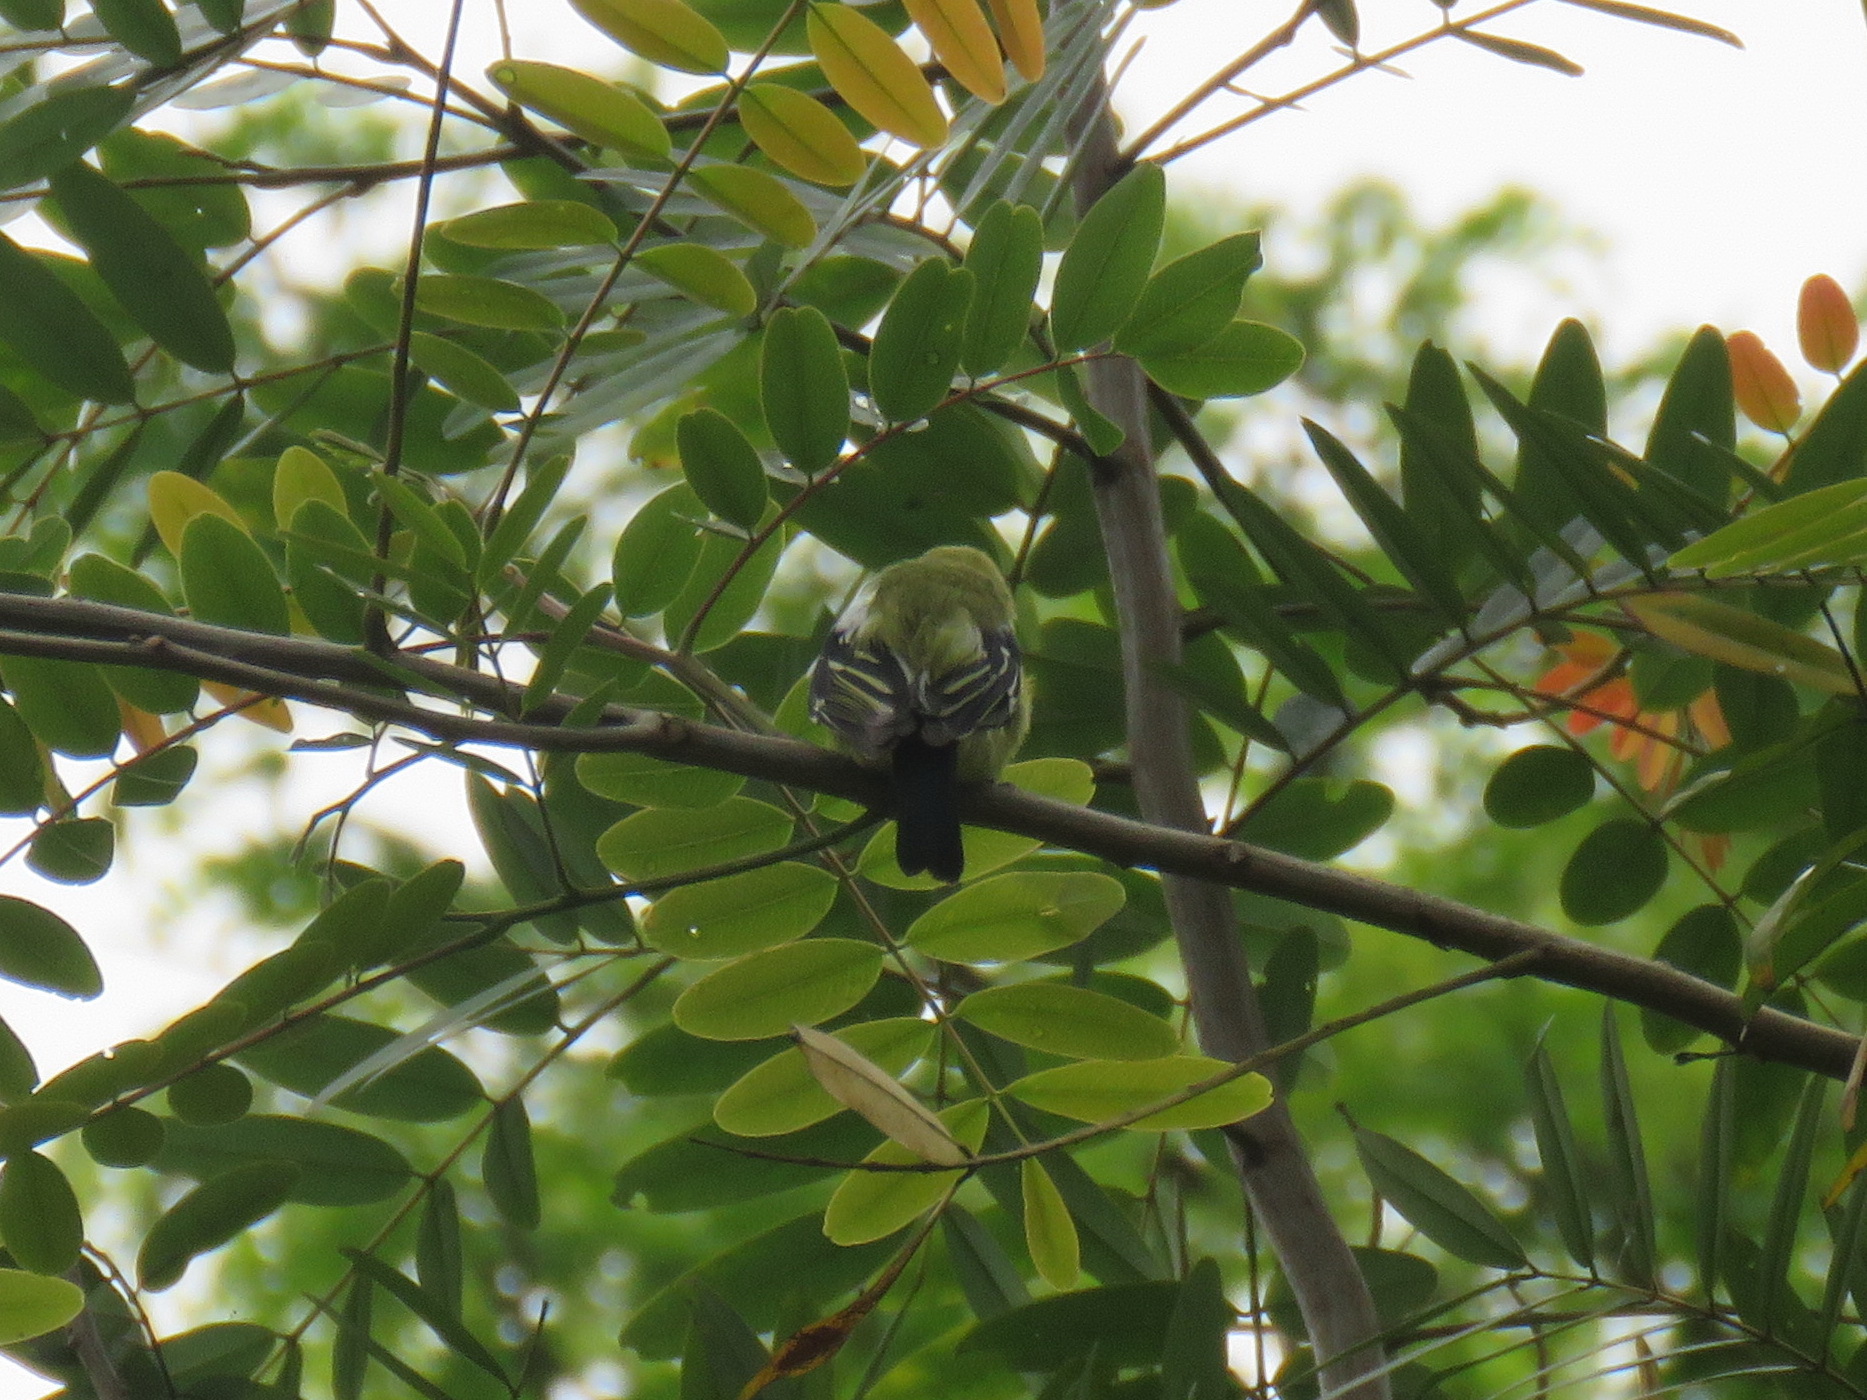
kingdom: Animalia
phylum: Chordata
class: Aves
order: Passeriformes
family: Aegithinidae
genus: Aegithina
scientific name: Aegithina tiphia
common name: Common iora
